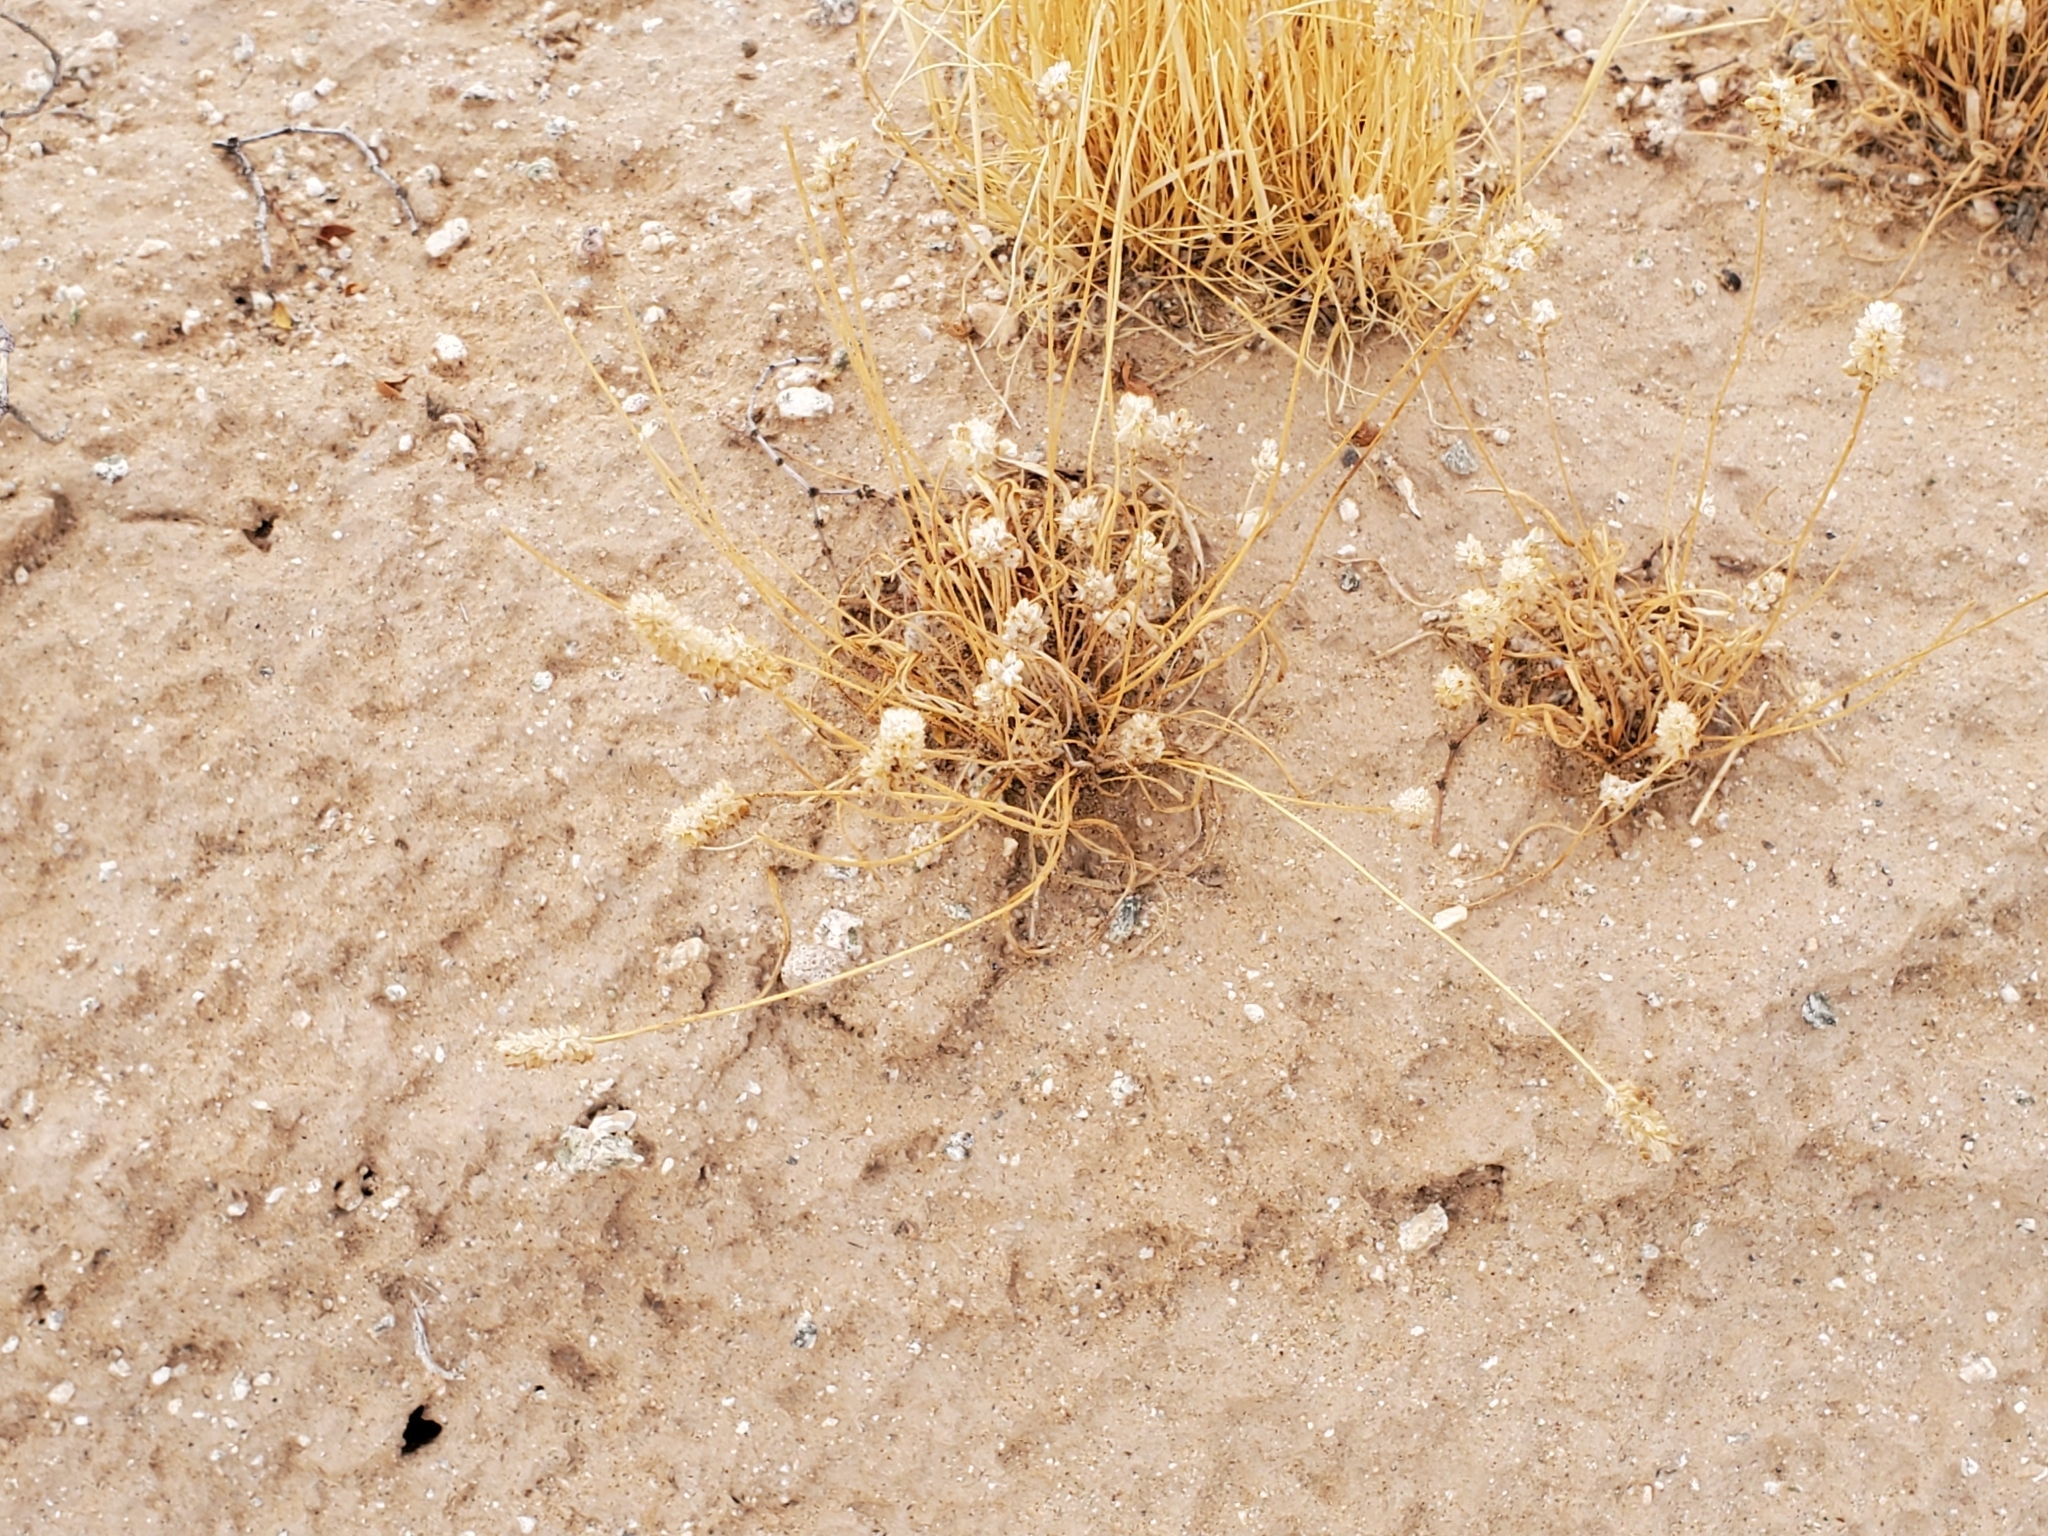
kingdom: Plantae
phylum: Tracheophyta
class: Magnoliopsida
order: Lamiales
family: Plantaginaceae
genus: Plantago
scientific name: Plantago ovata
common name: Blond plantain
